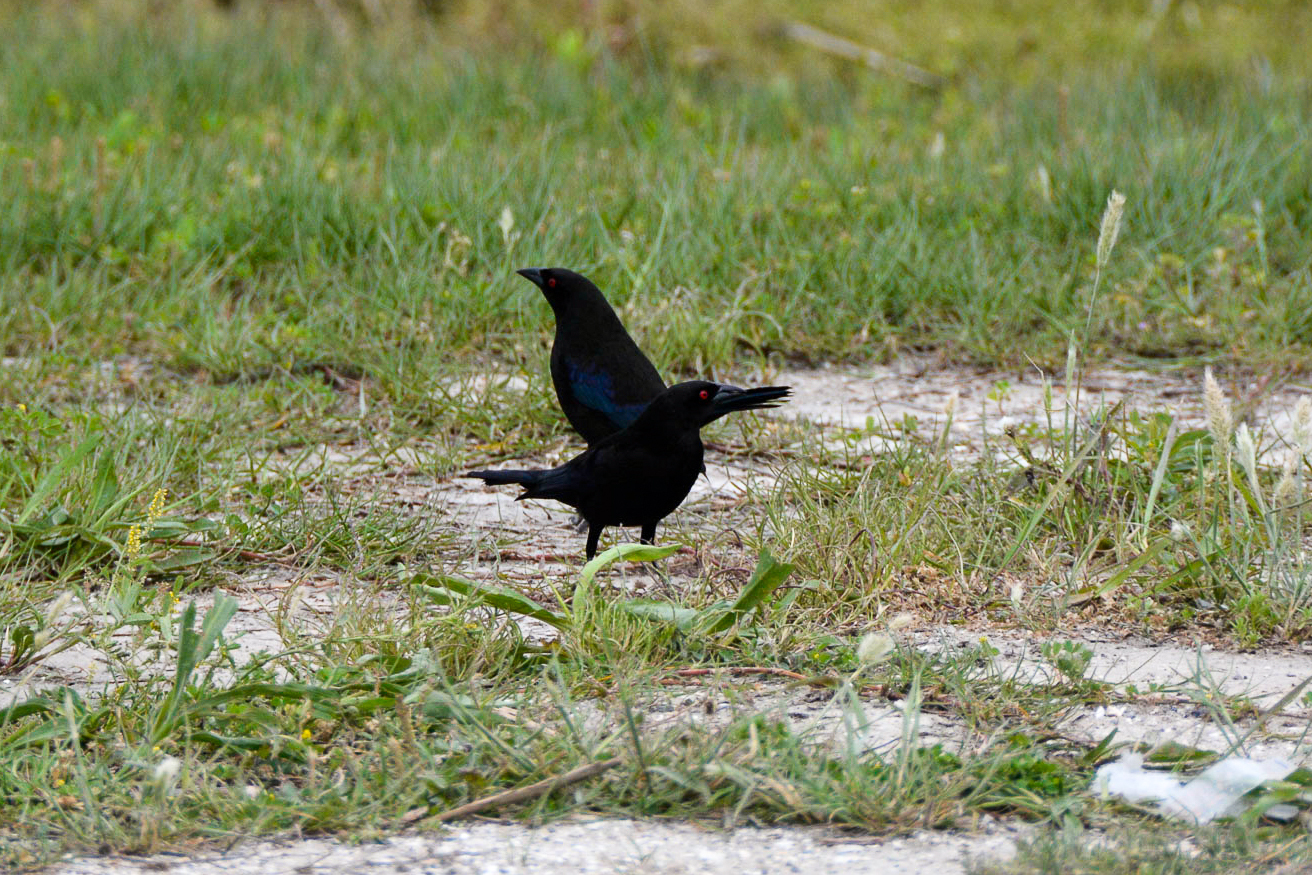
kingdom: Animalia
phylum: Chordata
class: Aves
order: Passeriformes
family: Icteridae
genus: Molothrus
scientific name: Molothrus aeneus
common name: Bronzed cowbird
